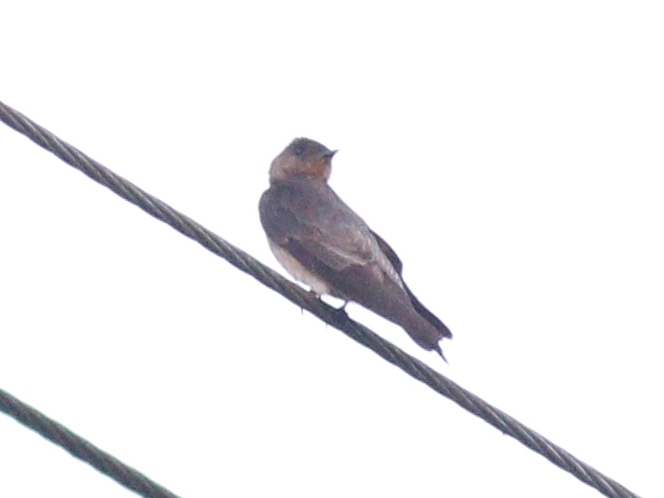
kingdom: Animalia
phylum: Chordata
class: Aves
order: Passeriformes
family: Hirundinidae
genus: Stelgidopteryx
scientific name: Stelgidopteryx ruficollis
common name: Southern rough-winged swallow
